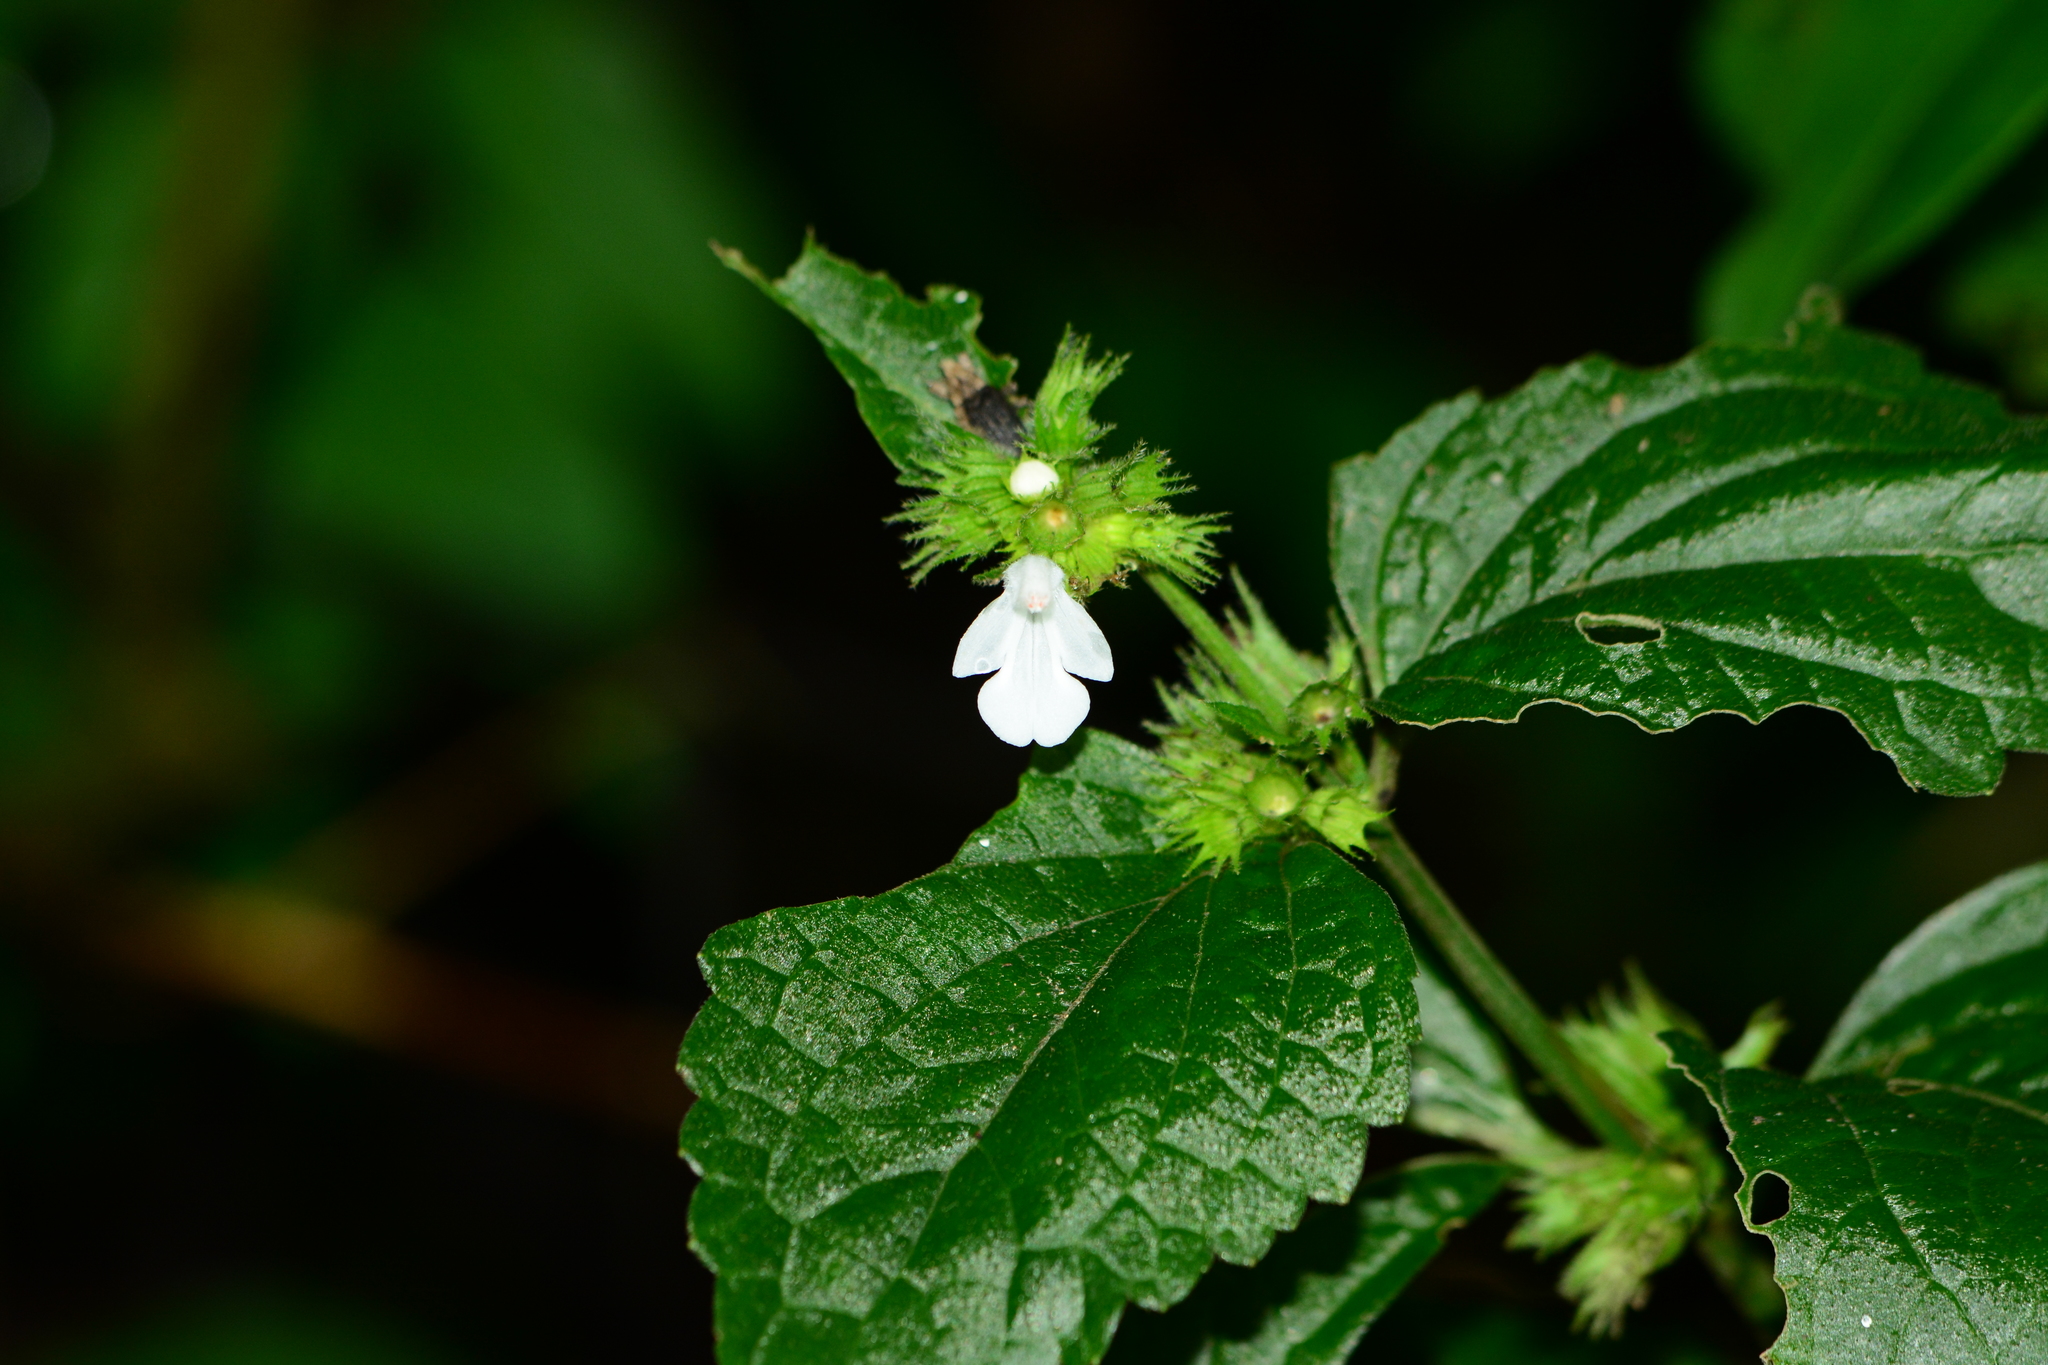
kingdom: Plantae
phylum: Tracheophyta
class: Magnoliopsida
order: Lamiales
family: Lamiaceae
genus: Leucas
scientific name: Leucas deodikarii
